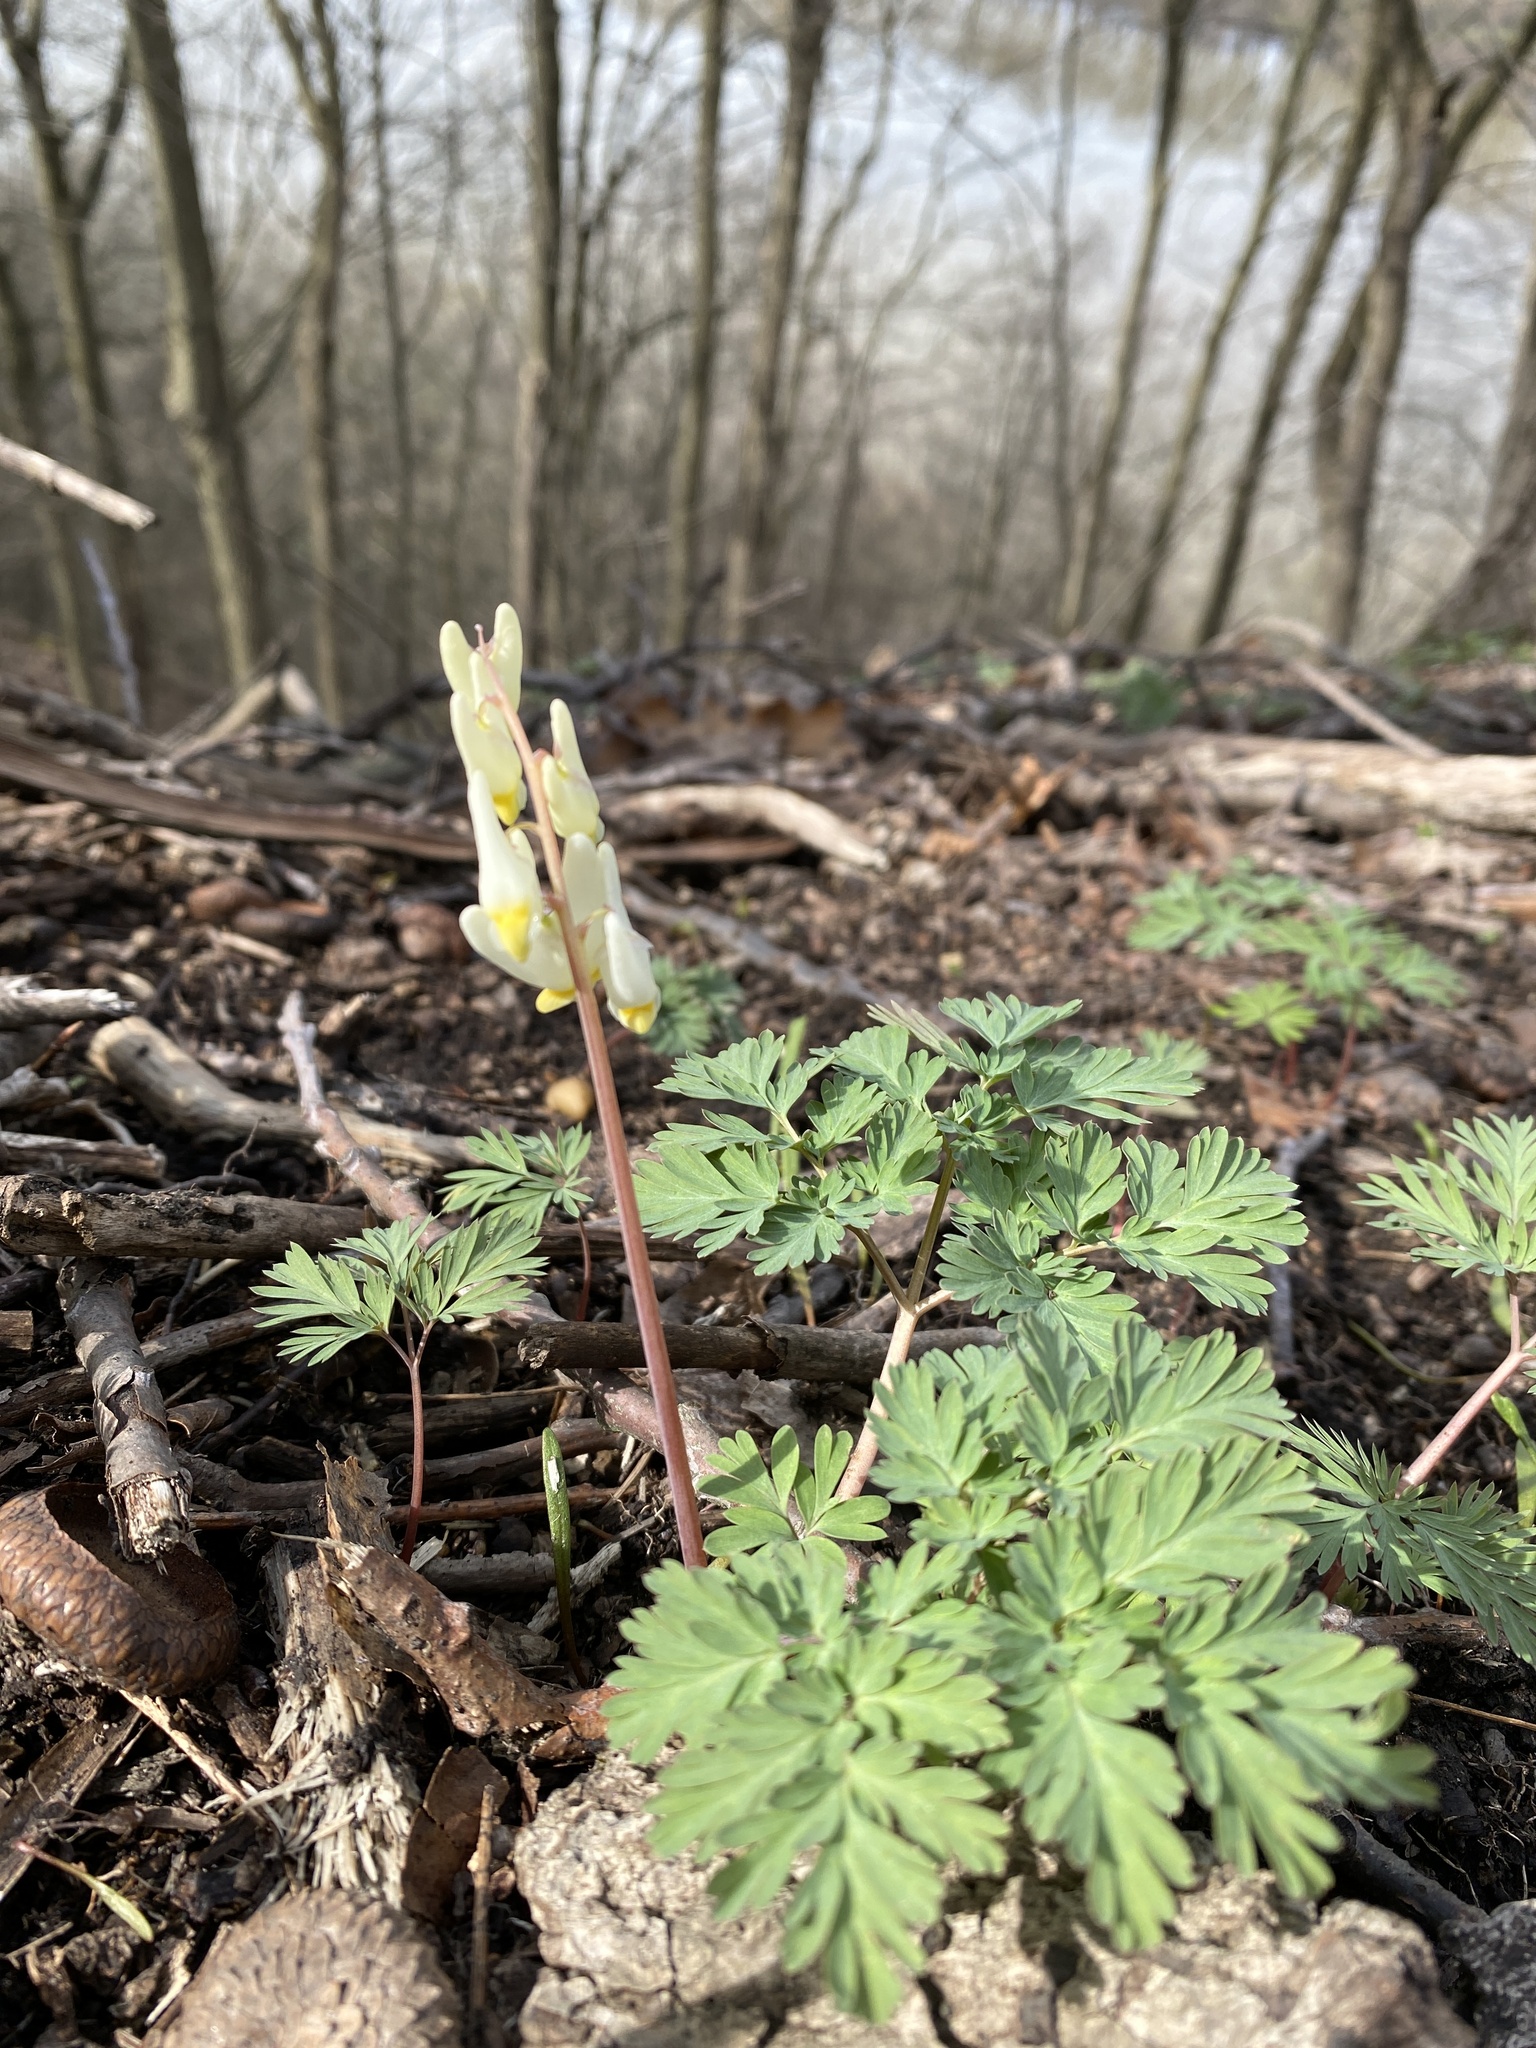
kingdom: Plantae
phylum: Tracheophyta
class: Magnoliopsida
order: Ranunculales
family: Papaveraceae
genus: Dicentra
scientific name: Dicentra cucullaria
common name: Dutchman's breeches
